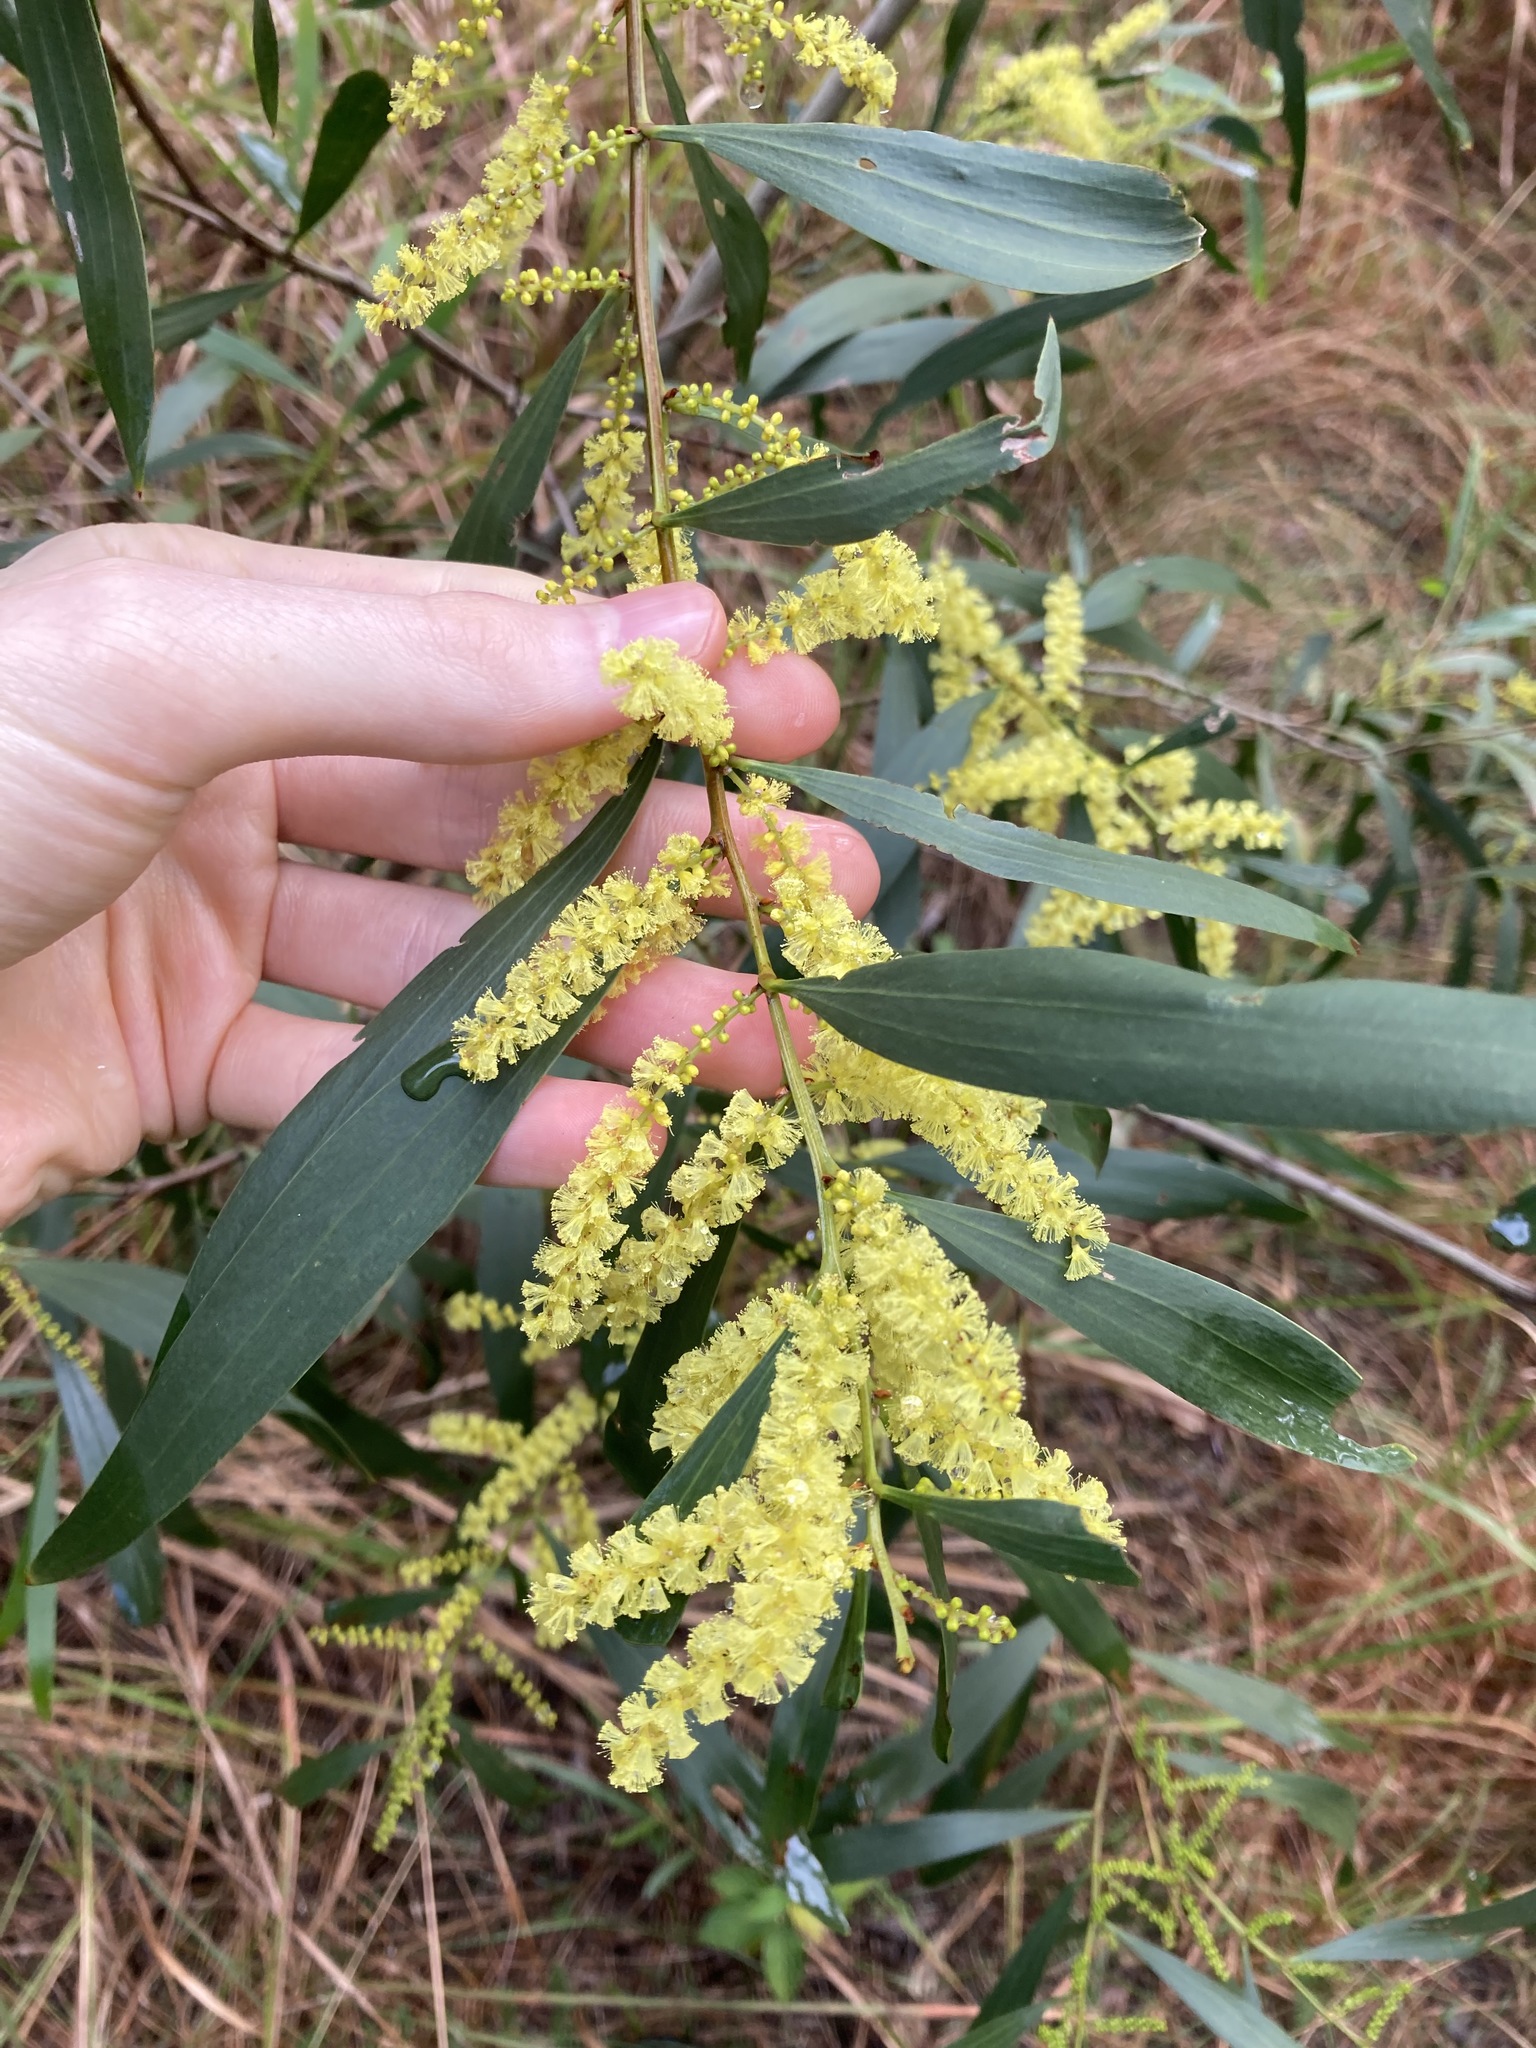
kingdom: Plantae
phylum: Tracheophyta
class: Magnoliopsida
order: Fabales
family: Fabaceae
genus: Acacia
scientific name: Acacia longifolia
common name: Sydney golden wattle
